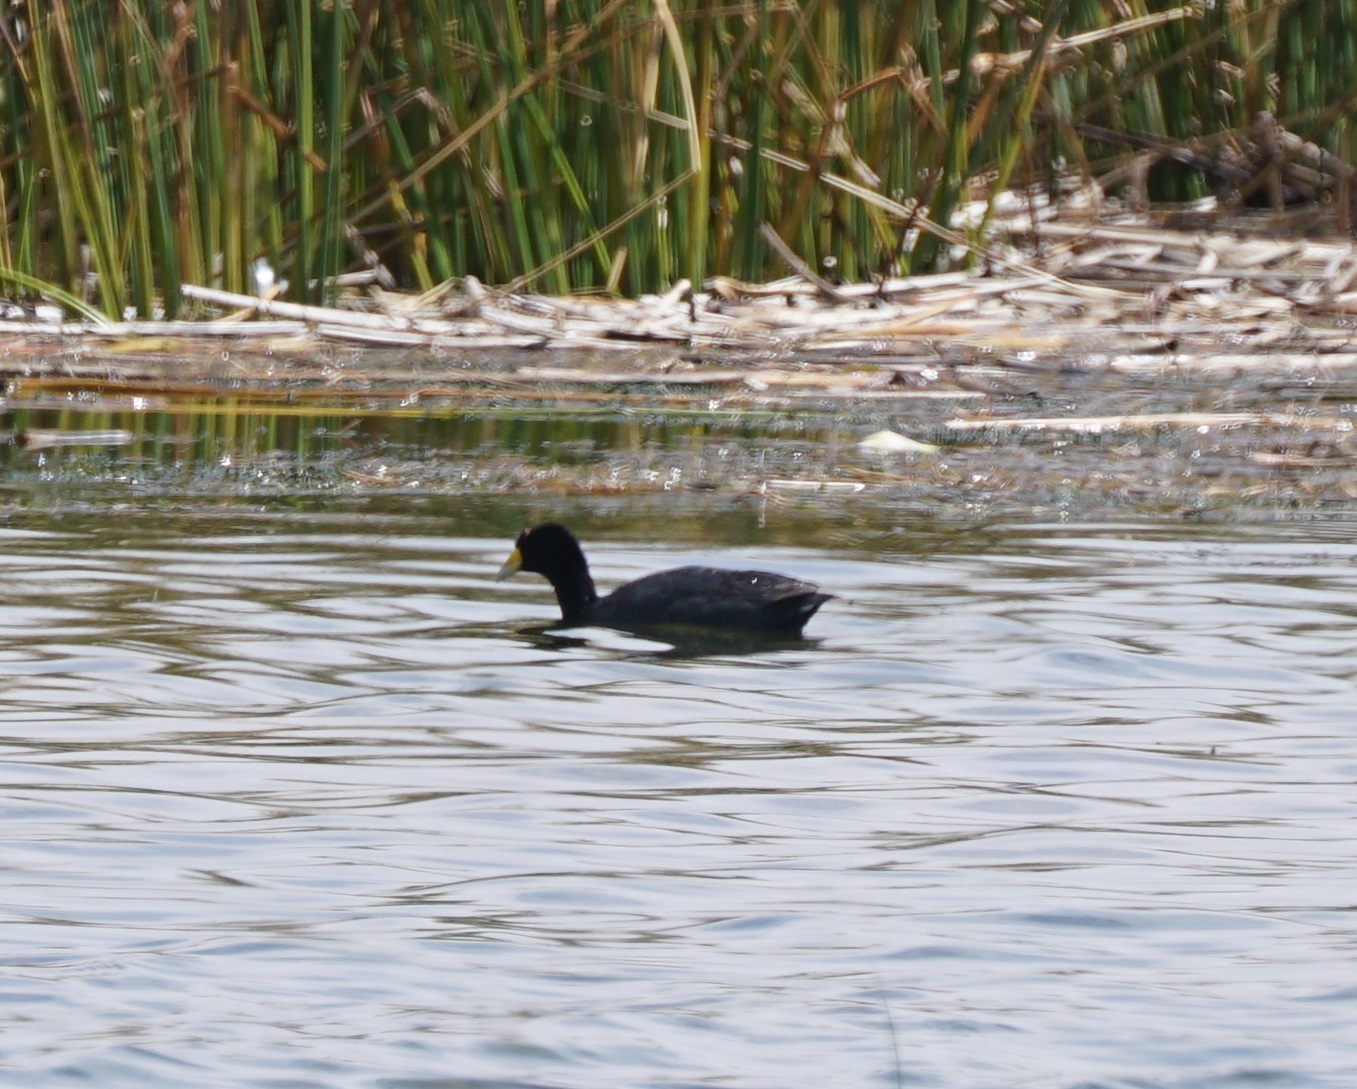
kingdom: Animalia
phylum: Chordata
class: Aves
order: Gruiformes
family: Rallidae
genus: Fulica
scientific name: Fulica ardesiaca
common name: Andean coot
